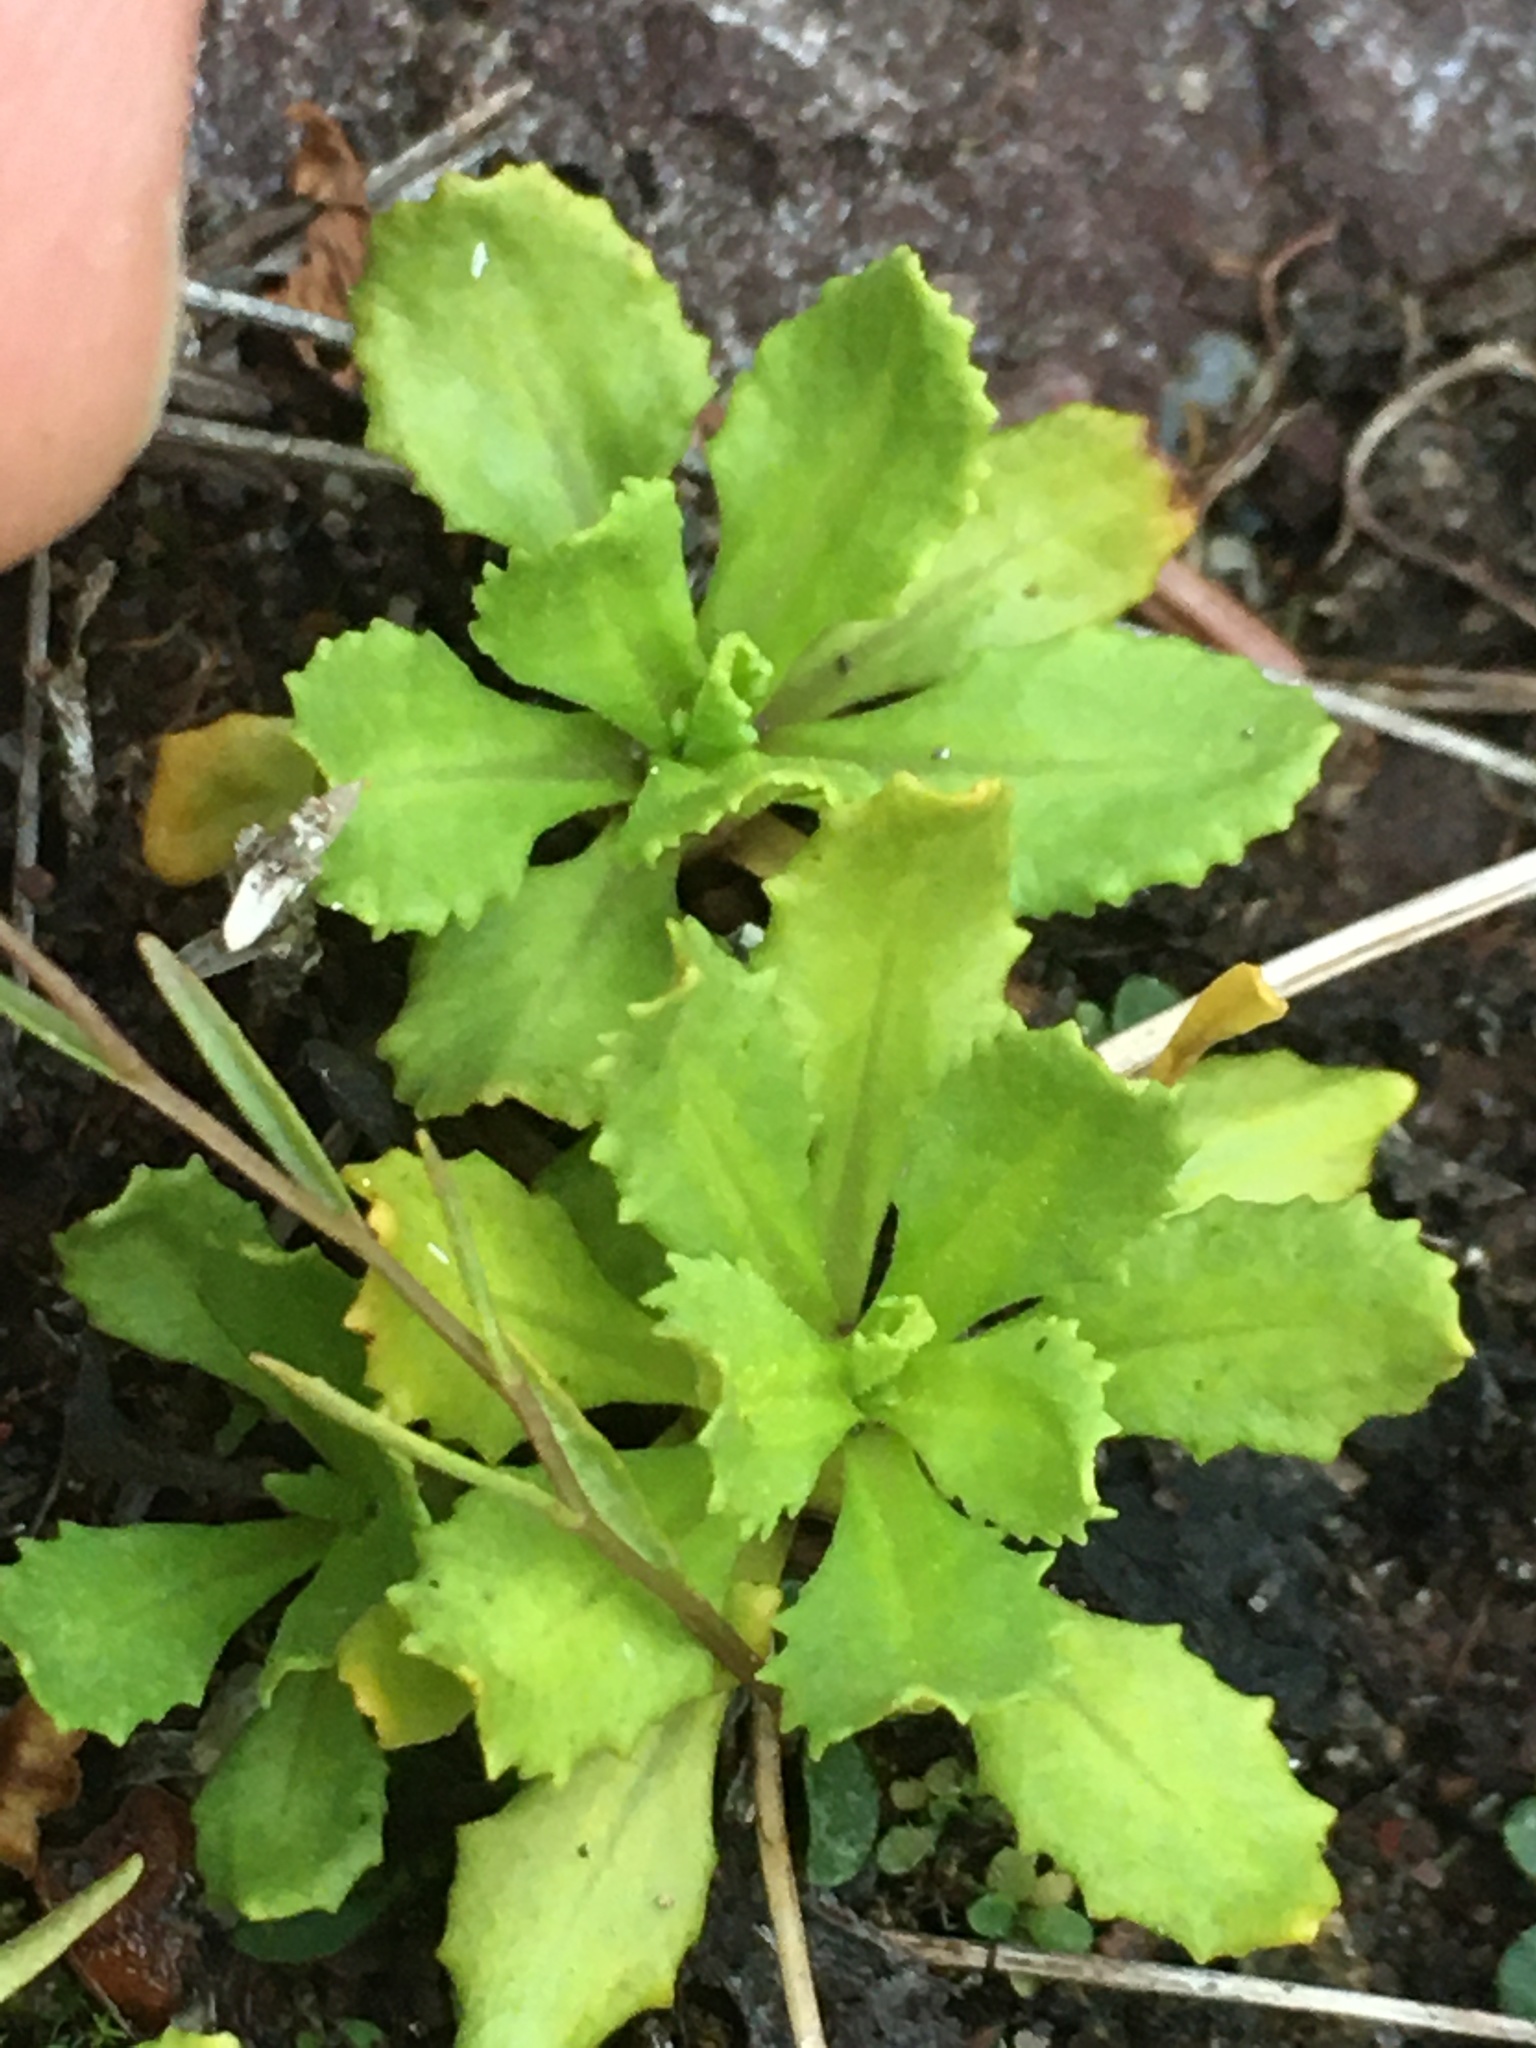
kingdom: Plantae
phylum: Tracheophyta
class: Magnoliopsida
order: Ericales
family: Primulaceae
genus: Primula
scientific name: Primula mistassinica
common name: Bird's-eye primrose
